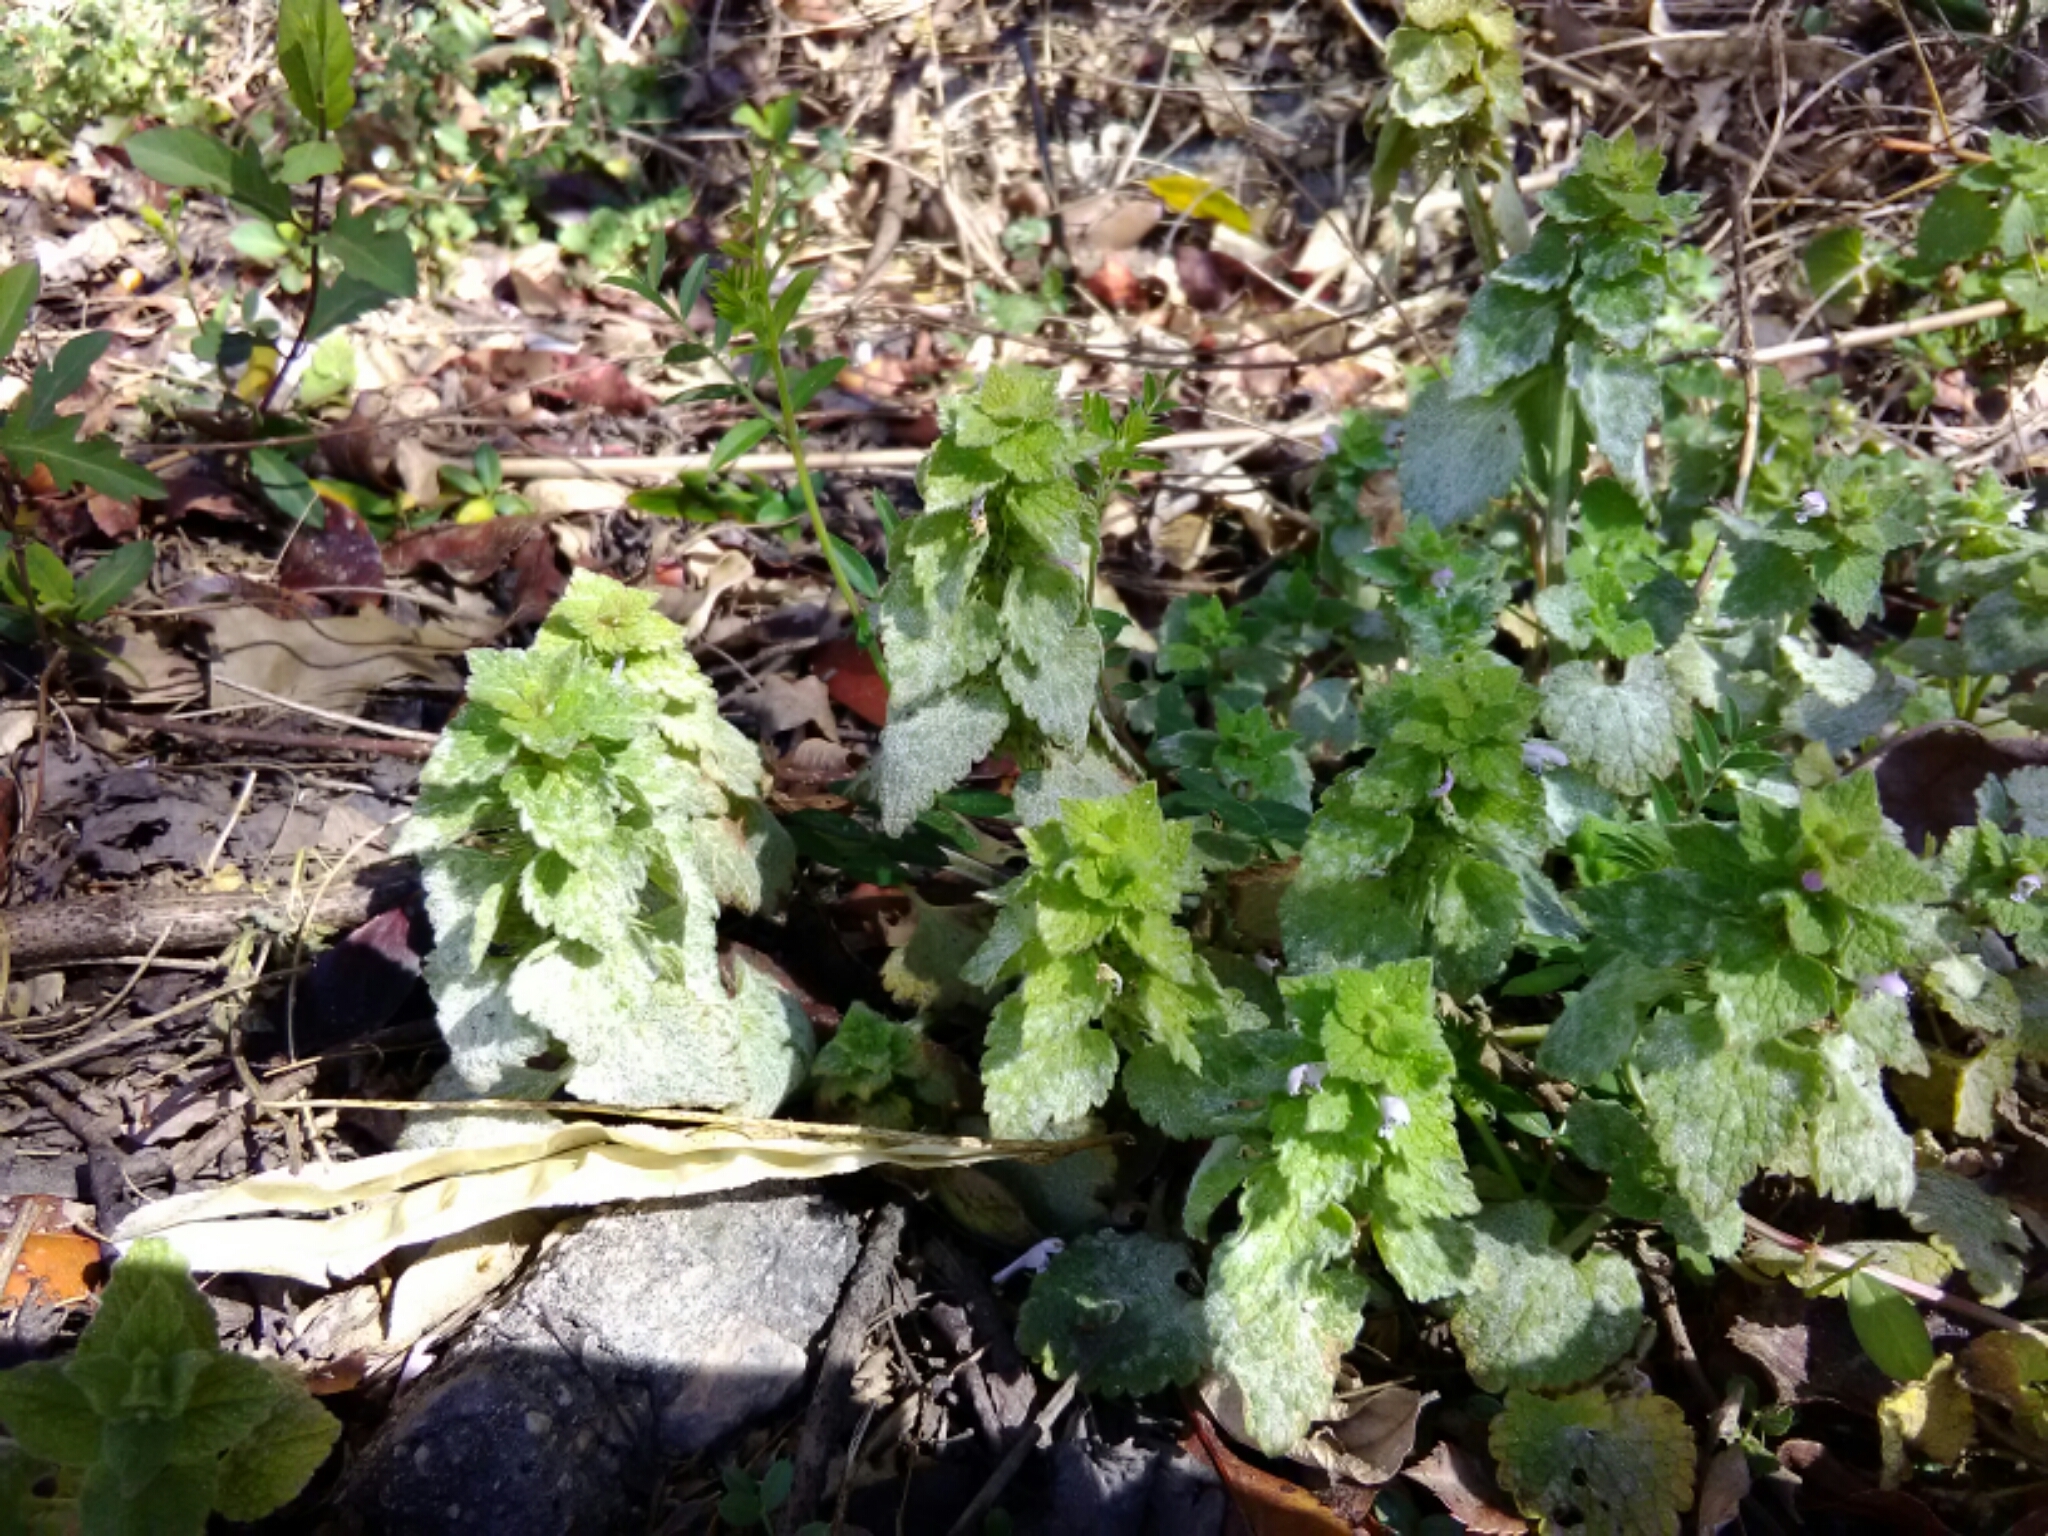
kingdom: Plantae
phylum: Tracheophyta
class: Magnoliopsida
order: Lamiales
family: Lamiaceae
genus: Lamium
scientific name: Lamium purpureum
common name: Red dead-nettle
